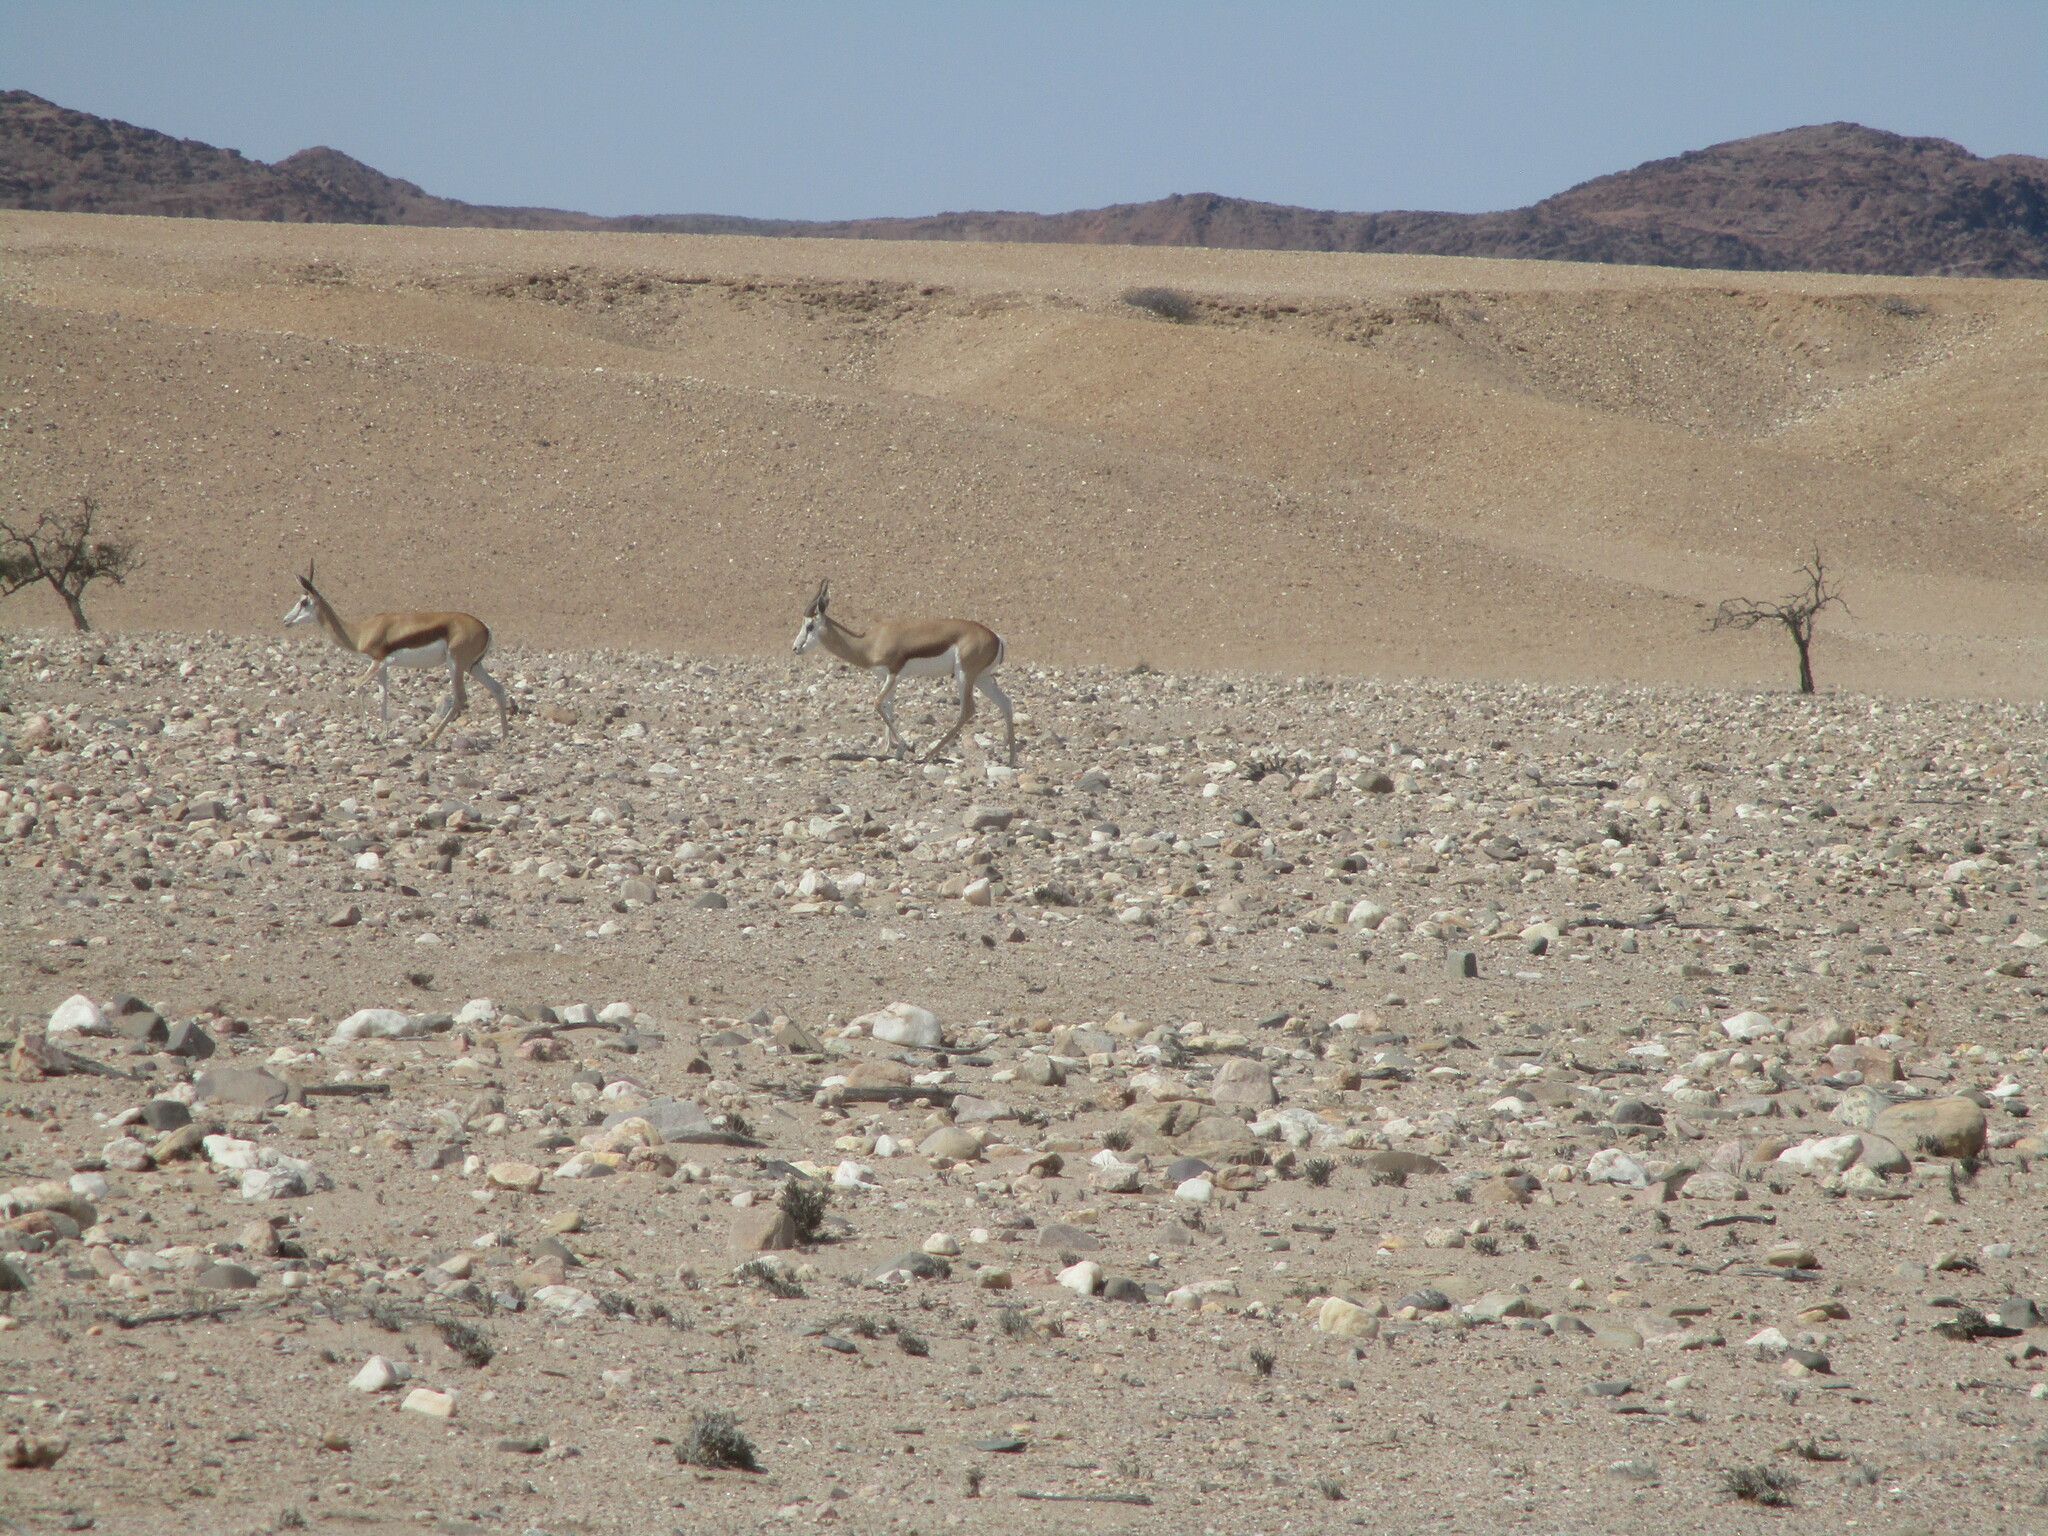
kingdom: Animalia
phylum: Chordata
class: Mammalia
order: Artiodactyla
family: Bovidae
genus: Antidorcas
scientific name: Antidorcas marsupialis
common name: Springbok
